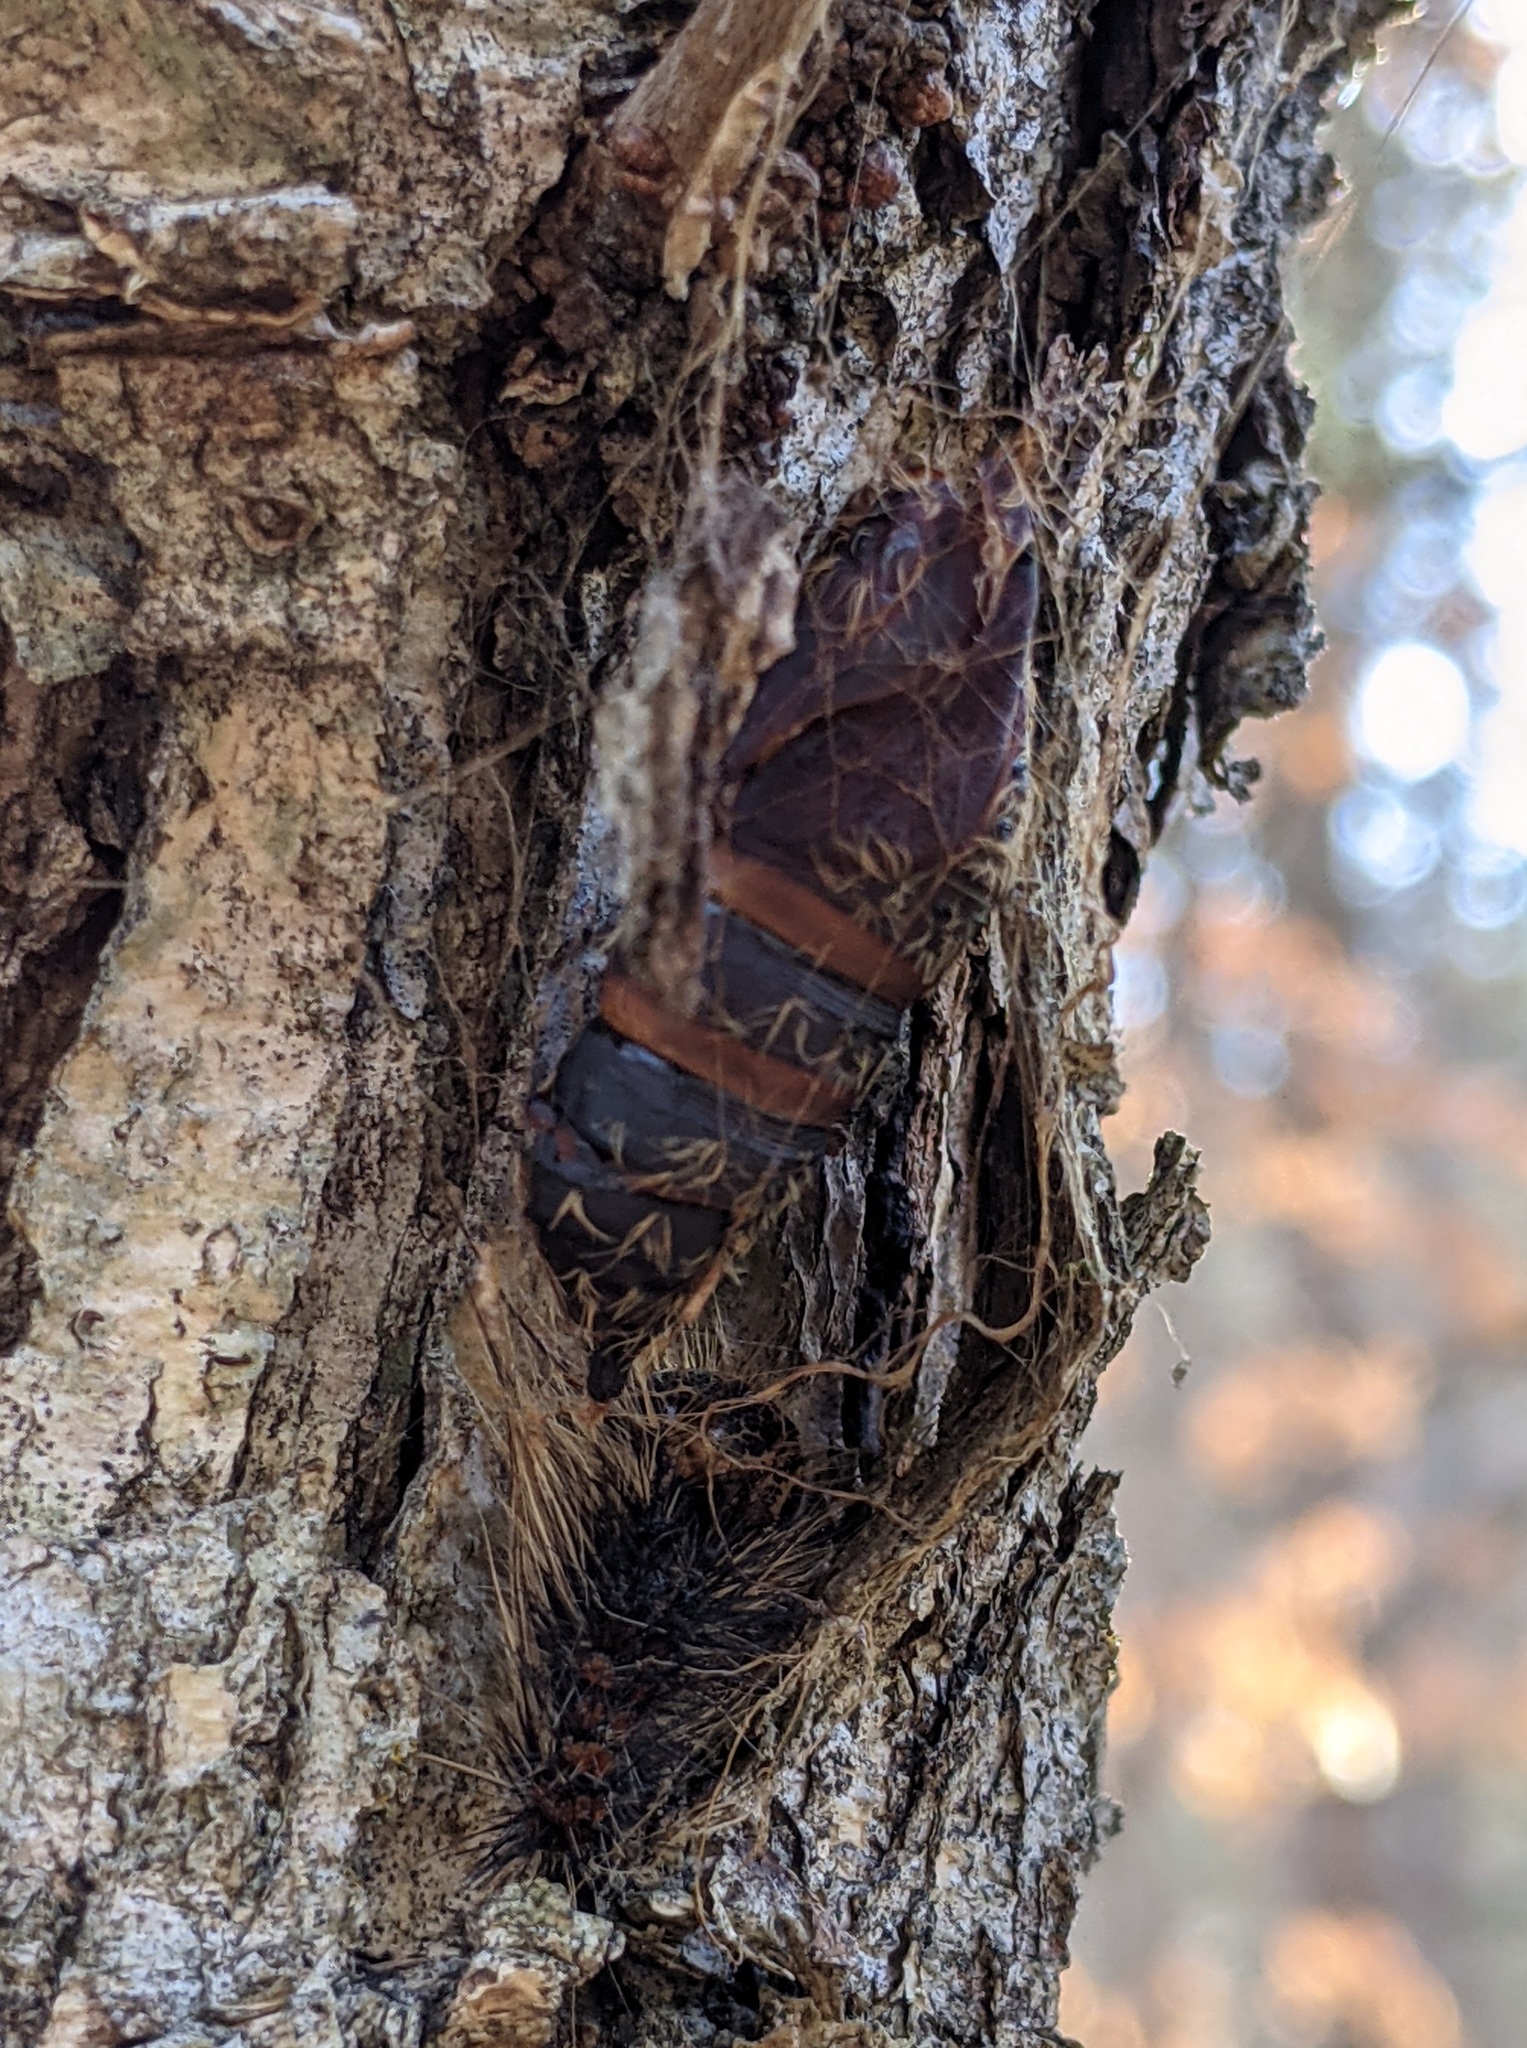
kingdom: Animalia
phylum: Arthropoda
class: Insecta
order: Lepidoptera
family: Erebidae
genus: Lymantria
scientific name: Lymantria dispar
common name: Gypsy moth
